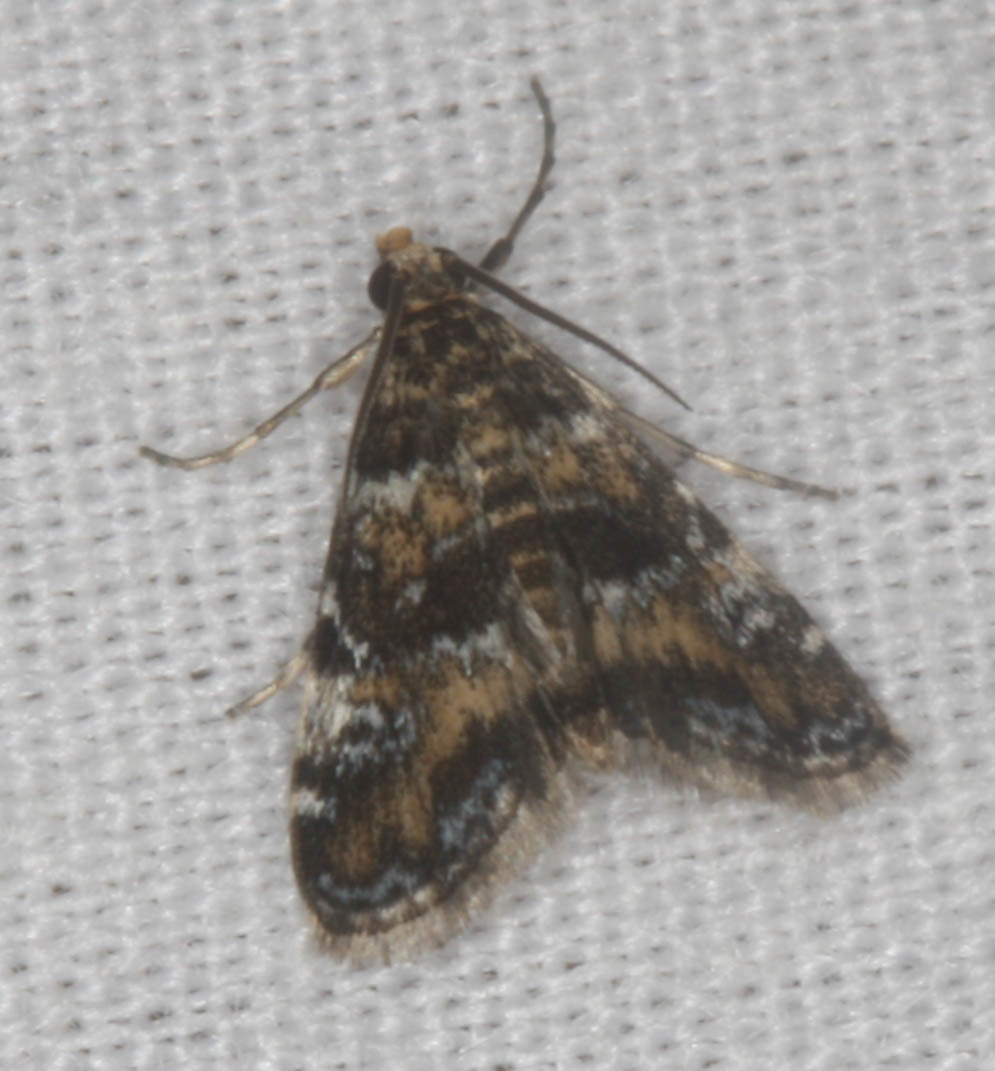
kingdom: Animalia
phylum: Arthropoda
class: Insecta
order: Lepidoptera
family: Crambidae
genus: Elophila
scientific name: Elophila obliteralis
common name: Waterlily leafcutter moth
